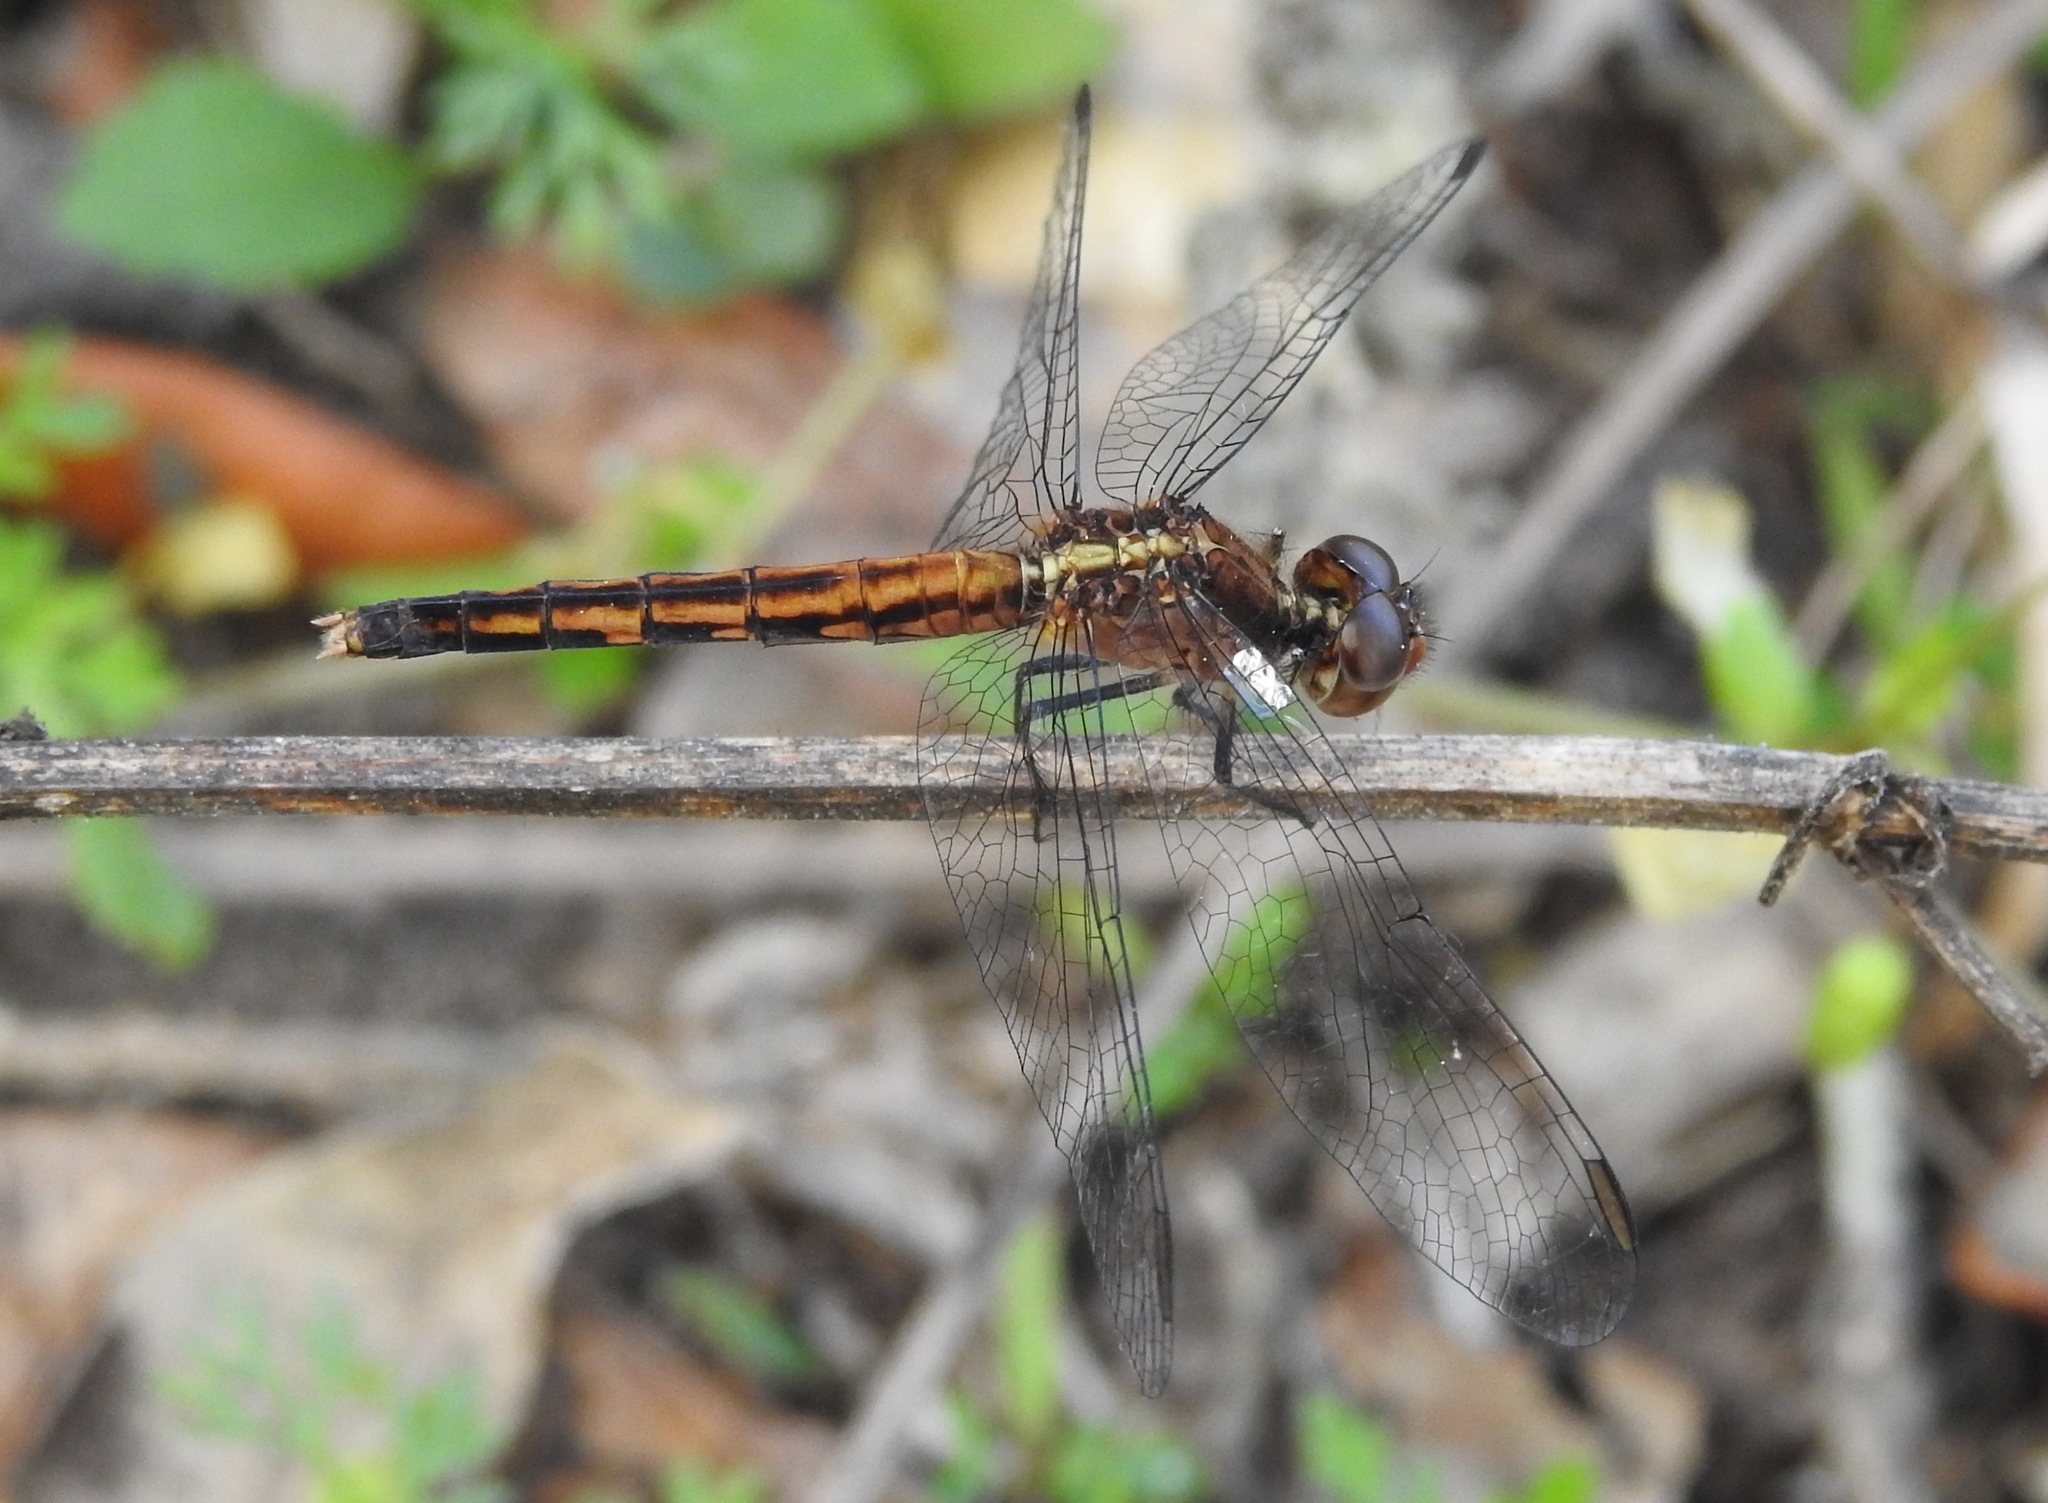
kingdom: Animalia
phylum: Arthropoda
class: Insecta
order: Odonata
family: Libellulidae
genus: Erythrodiplax
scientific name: Erythrodiplax minuscula
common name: Little blue dragonlet
